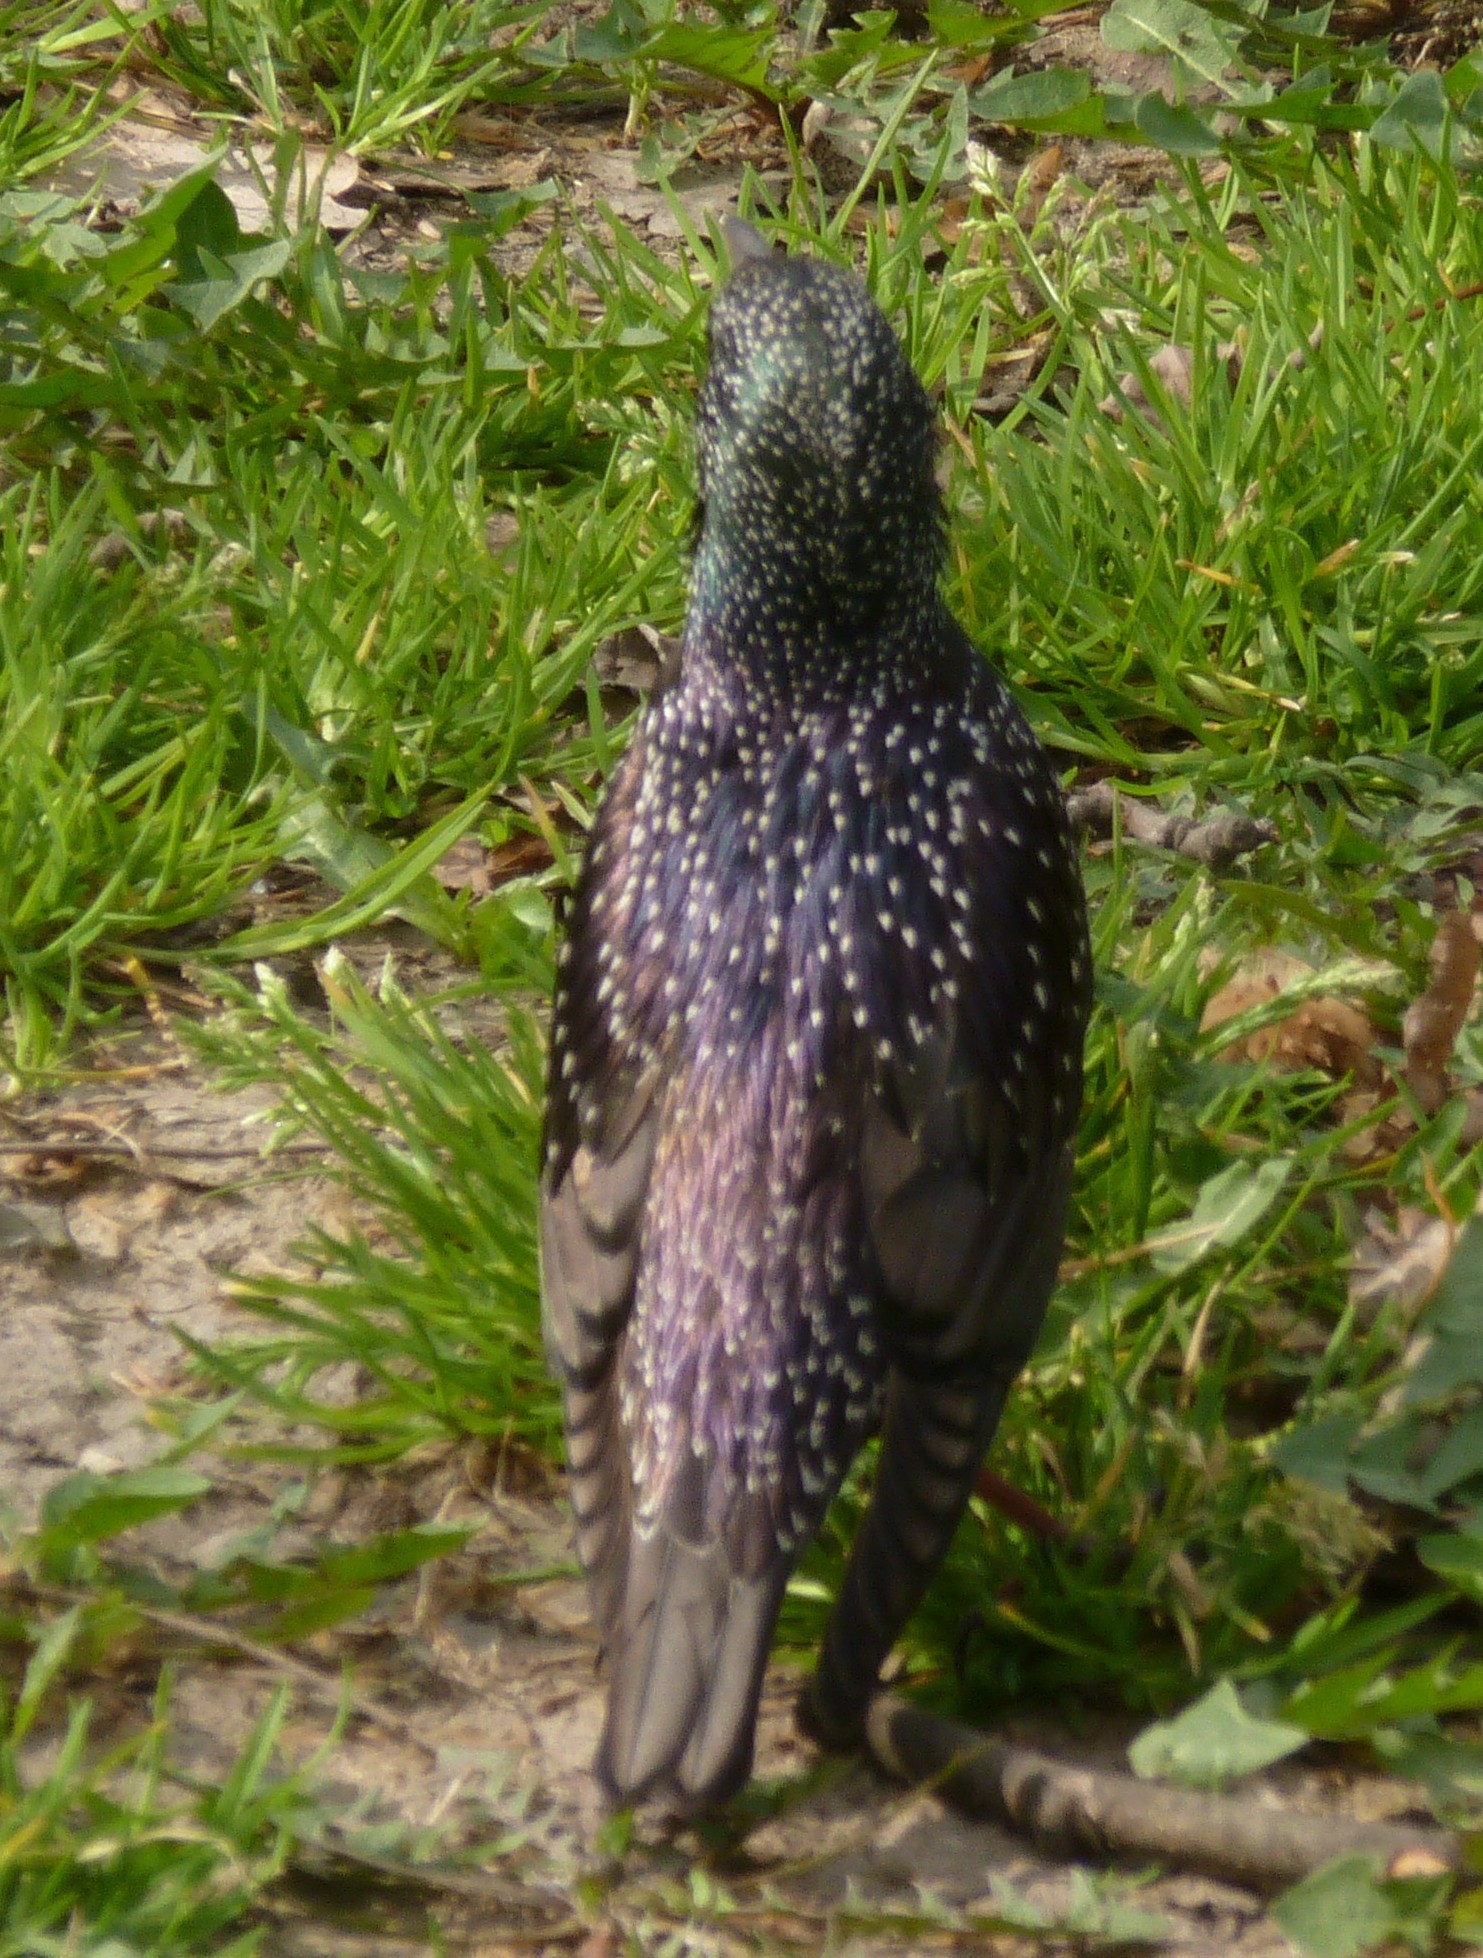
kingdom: Animalia
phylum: Chordata
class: Aves
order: Passeriformes
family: Sturnidae
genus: Sturnus
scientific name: Sturnus vulgaris
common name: Common starling
